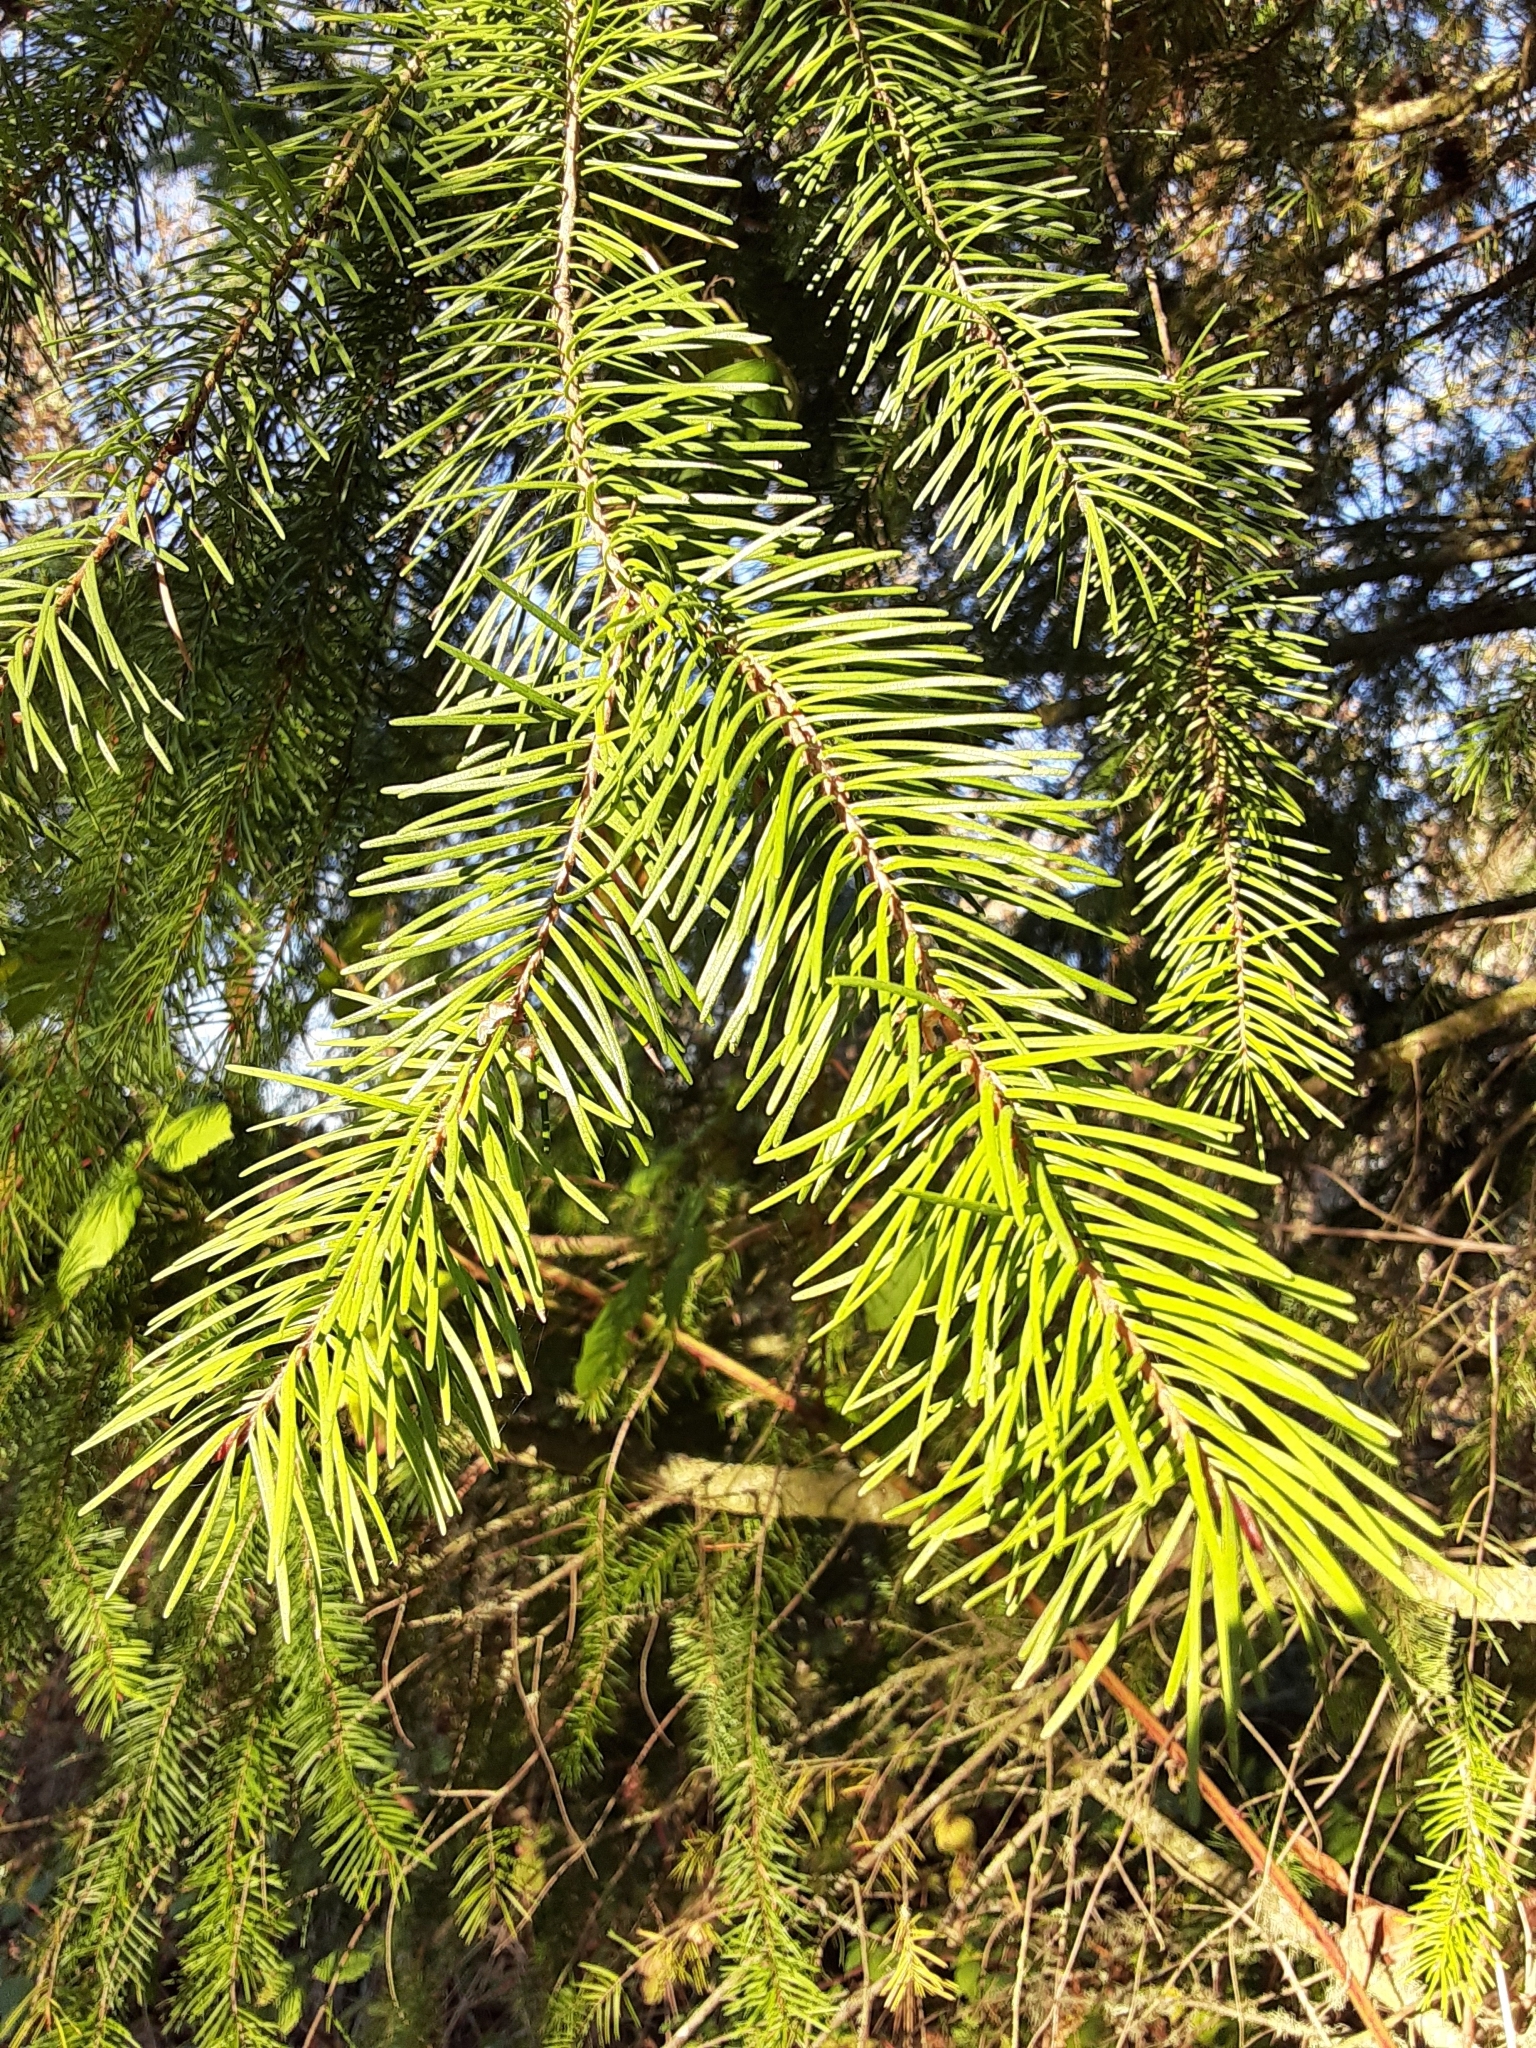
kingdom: Plantae
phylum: Tracheophyta
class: Pinopsida
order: Pinales
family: Pinaceae
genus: Pseudotsuga
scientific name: Pseudotsuga menziesii
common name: Douglas fir
